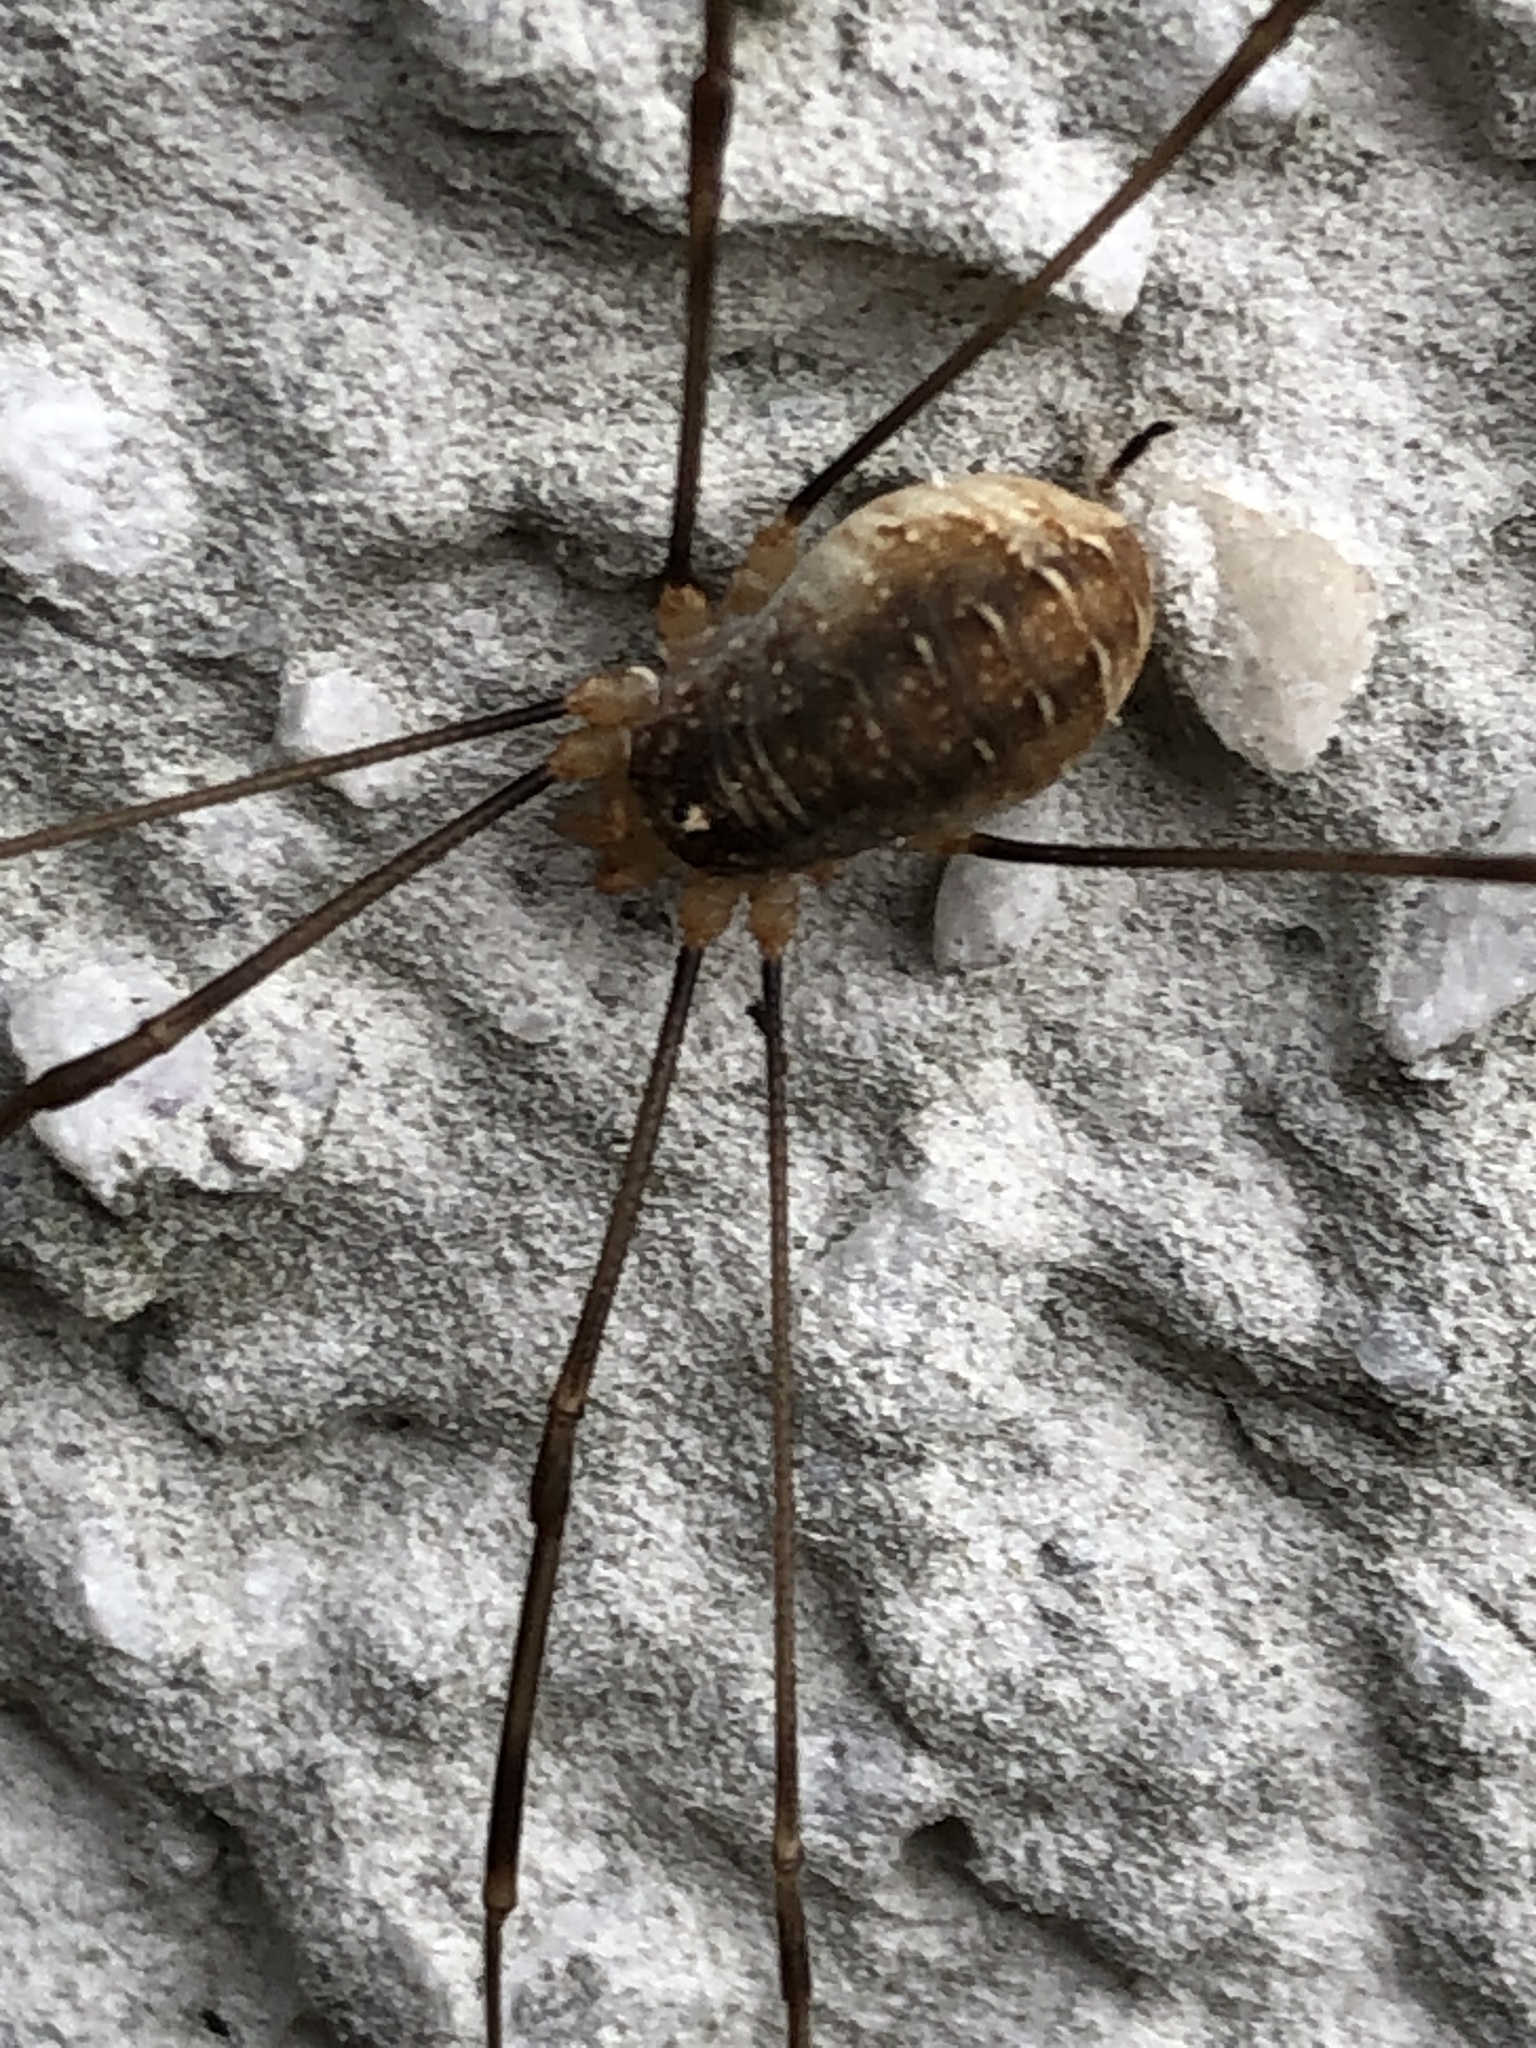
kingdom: Animalia
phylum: Arthropoda
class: Arachnida
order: Opiliones
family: Phalangiidae
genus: Opilio
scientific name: Opilio canestrinii
